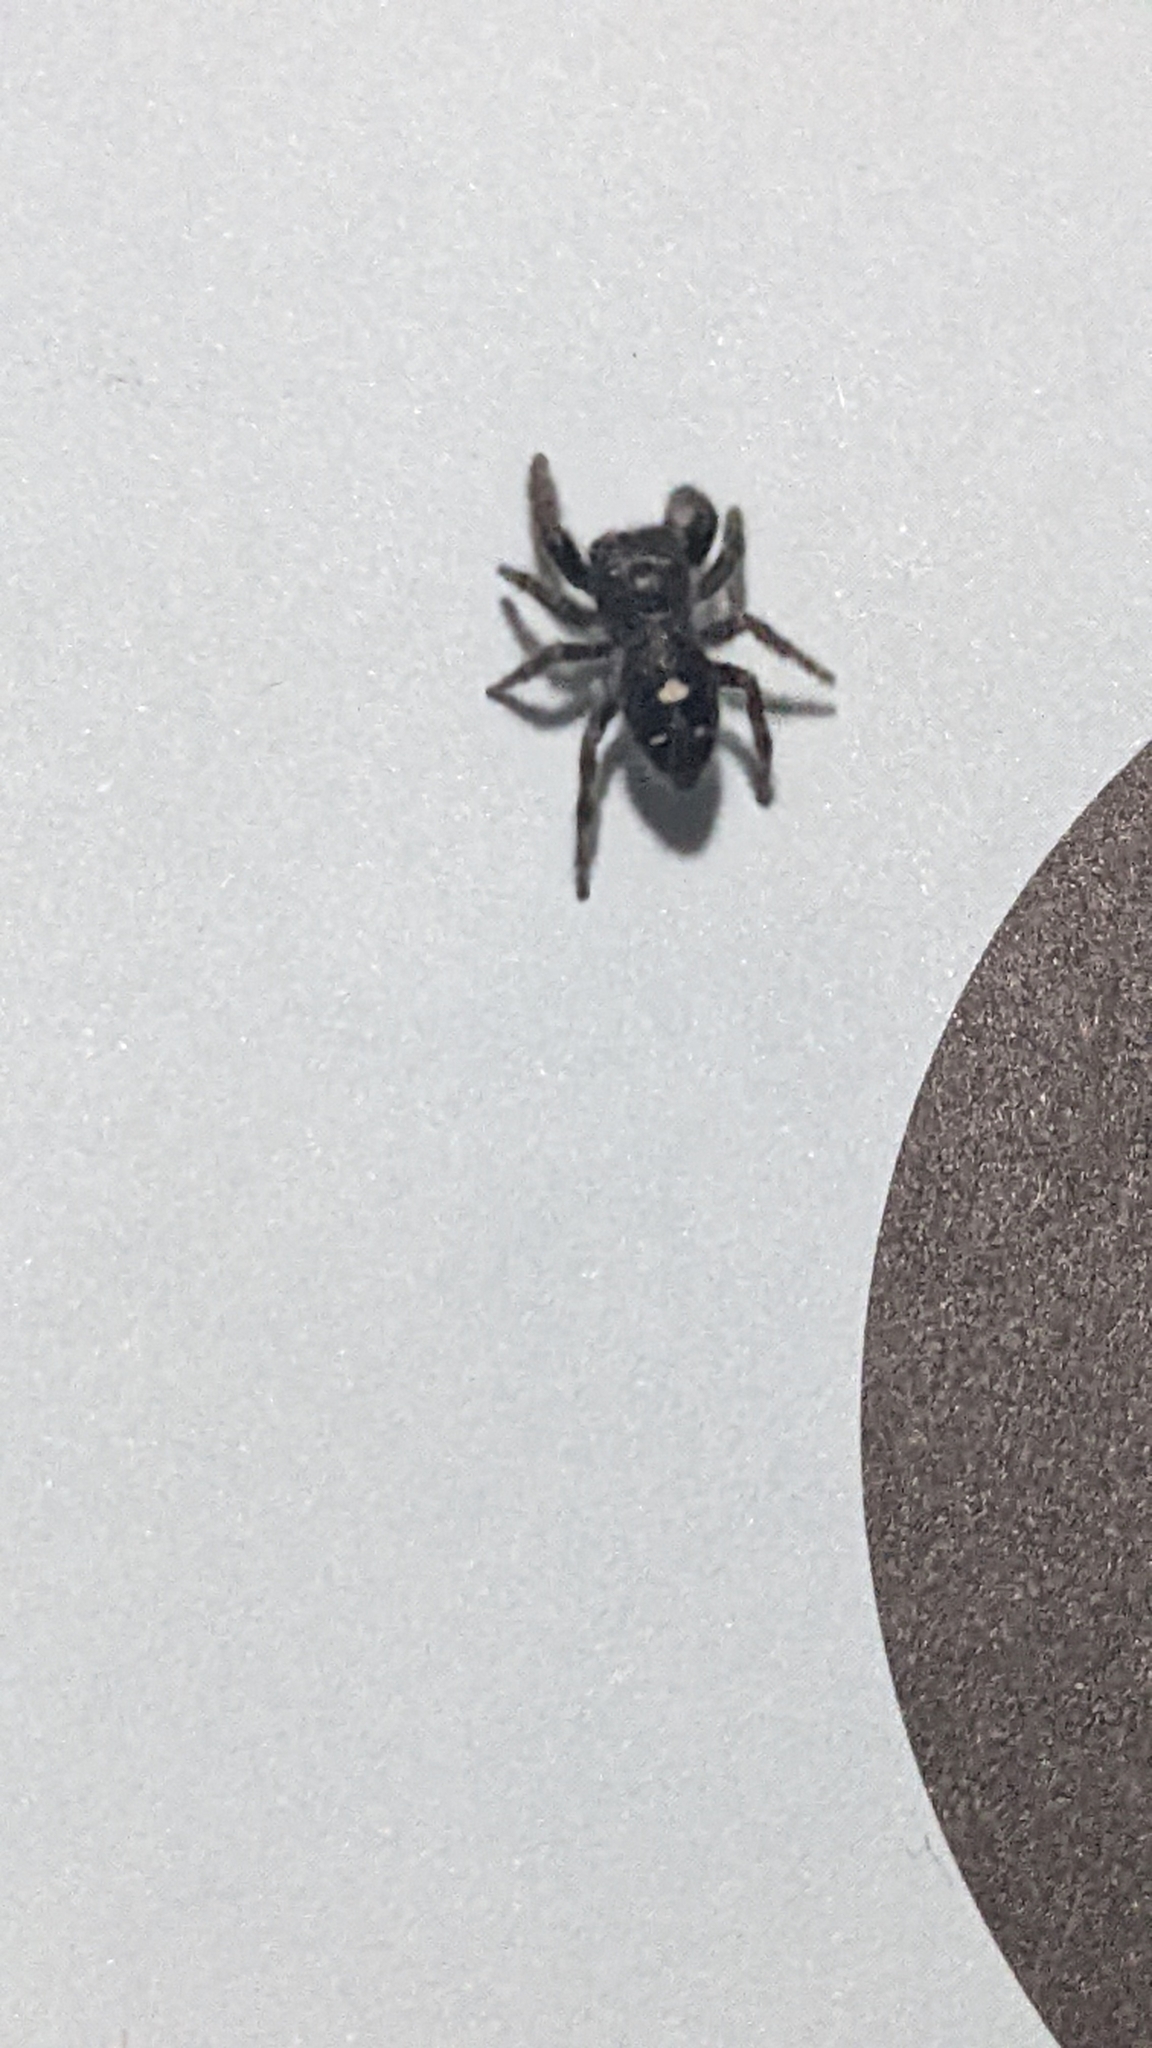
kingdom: Animalia
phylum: Arthropoda
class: Arachnida
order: Araneae
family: Salticidae
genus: Phidippus
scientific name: Phidippus audax
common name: Bold jumper
